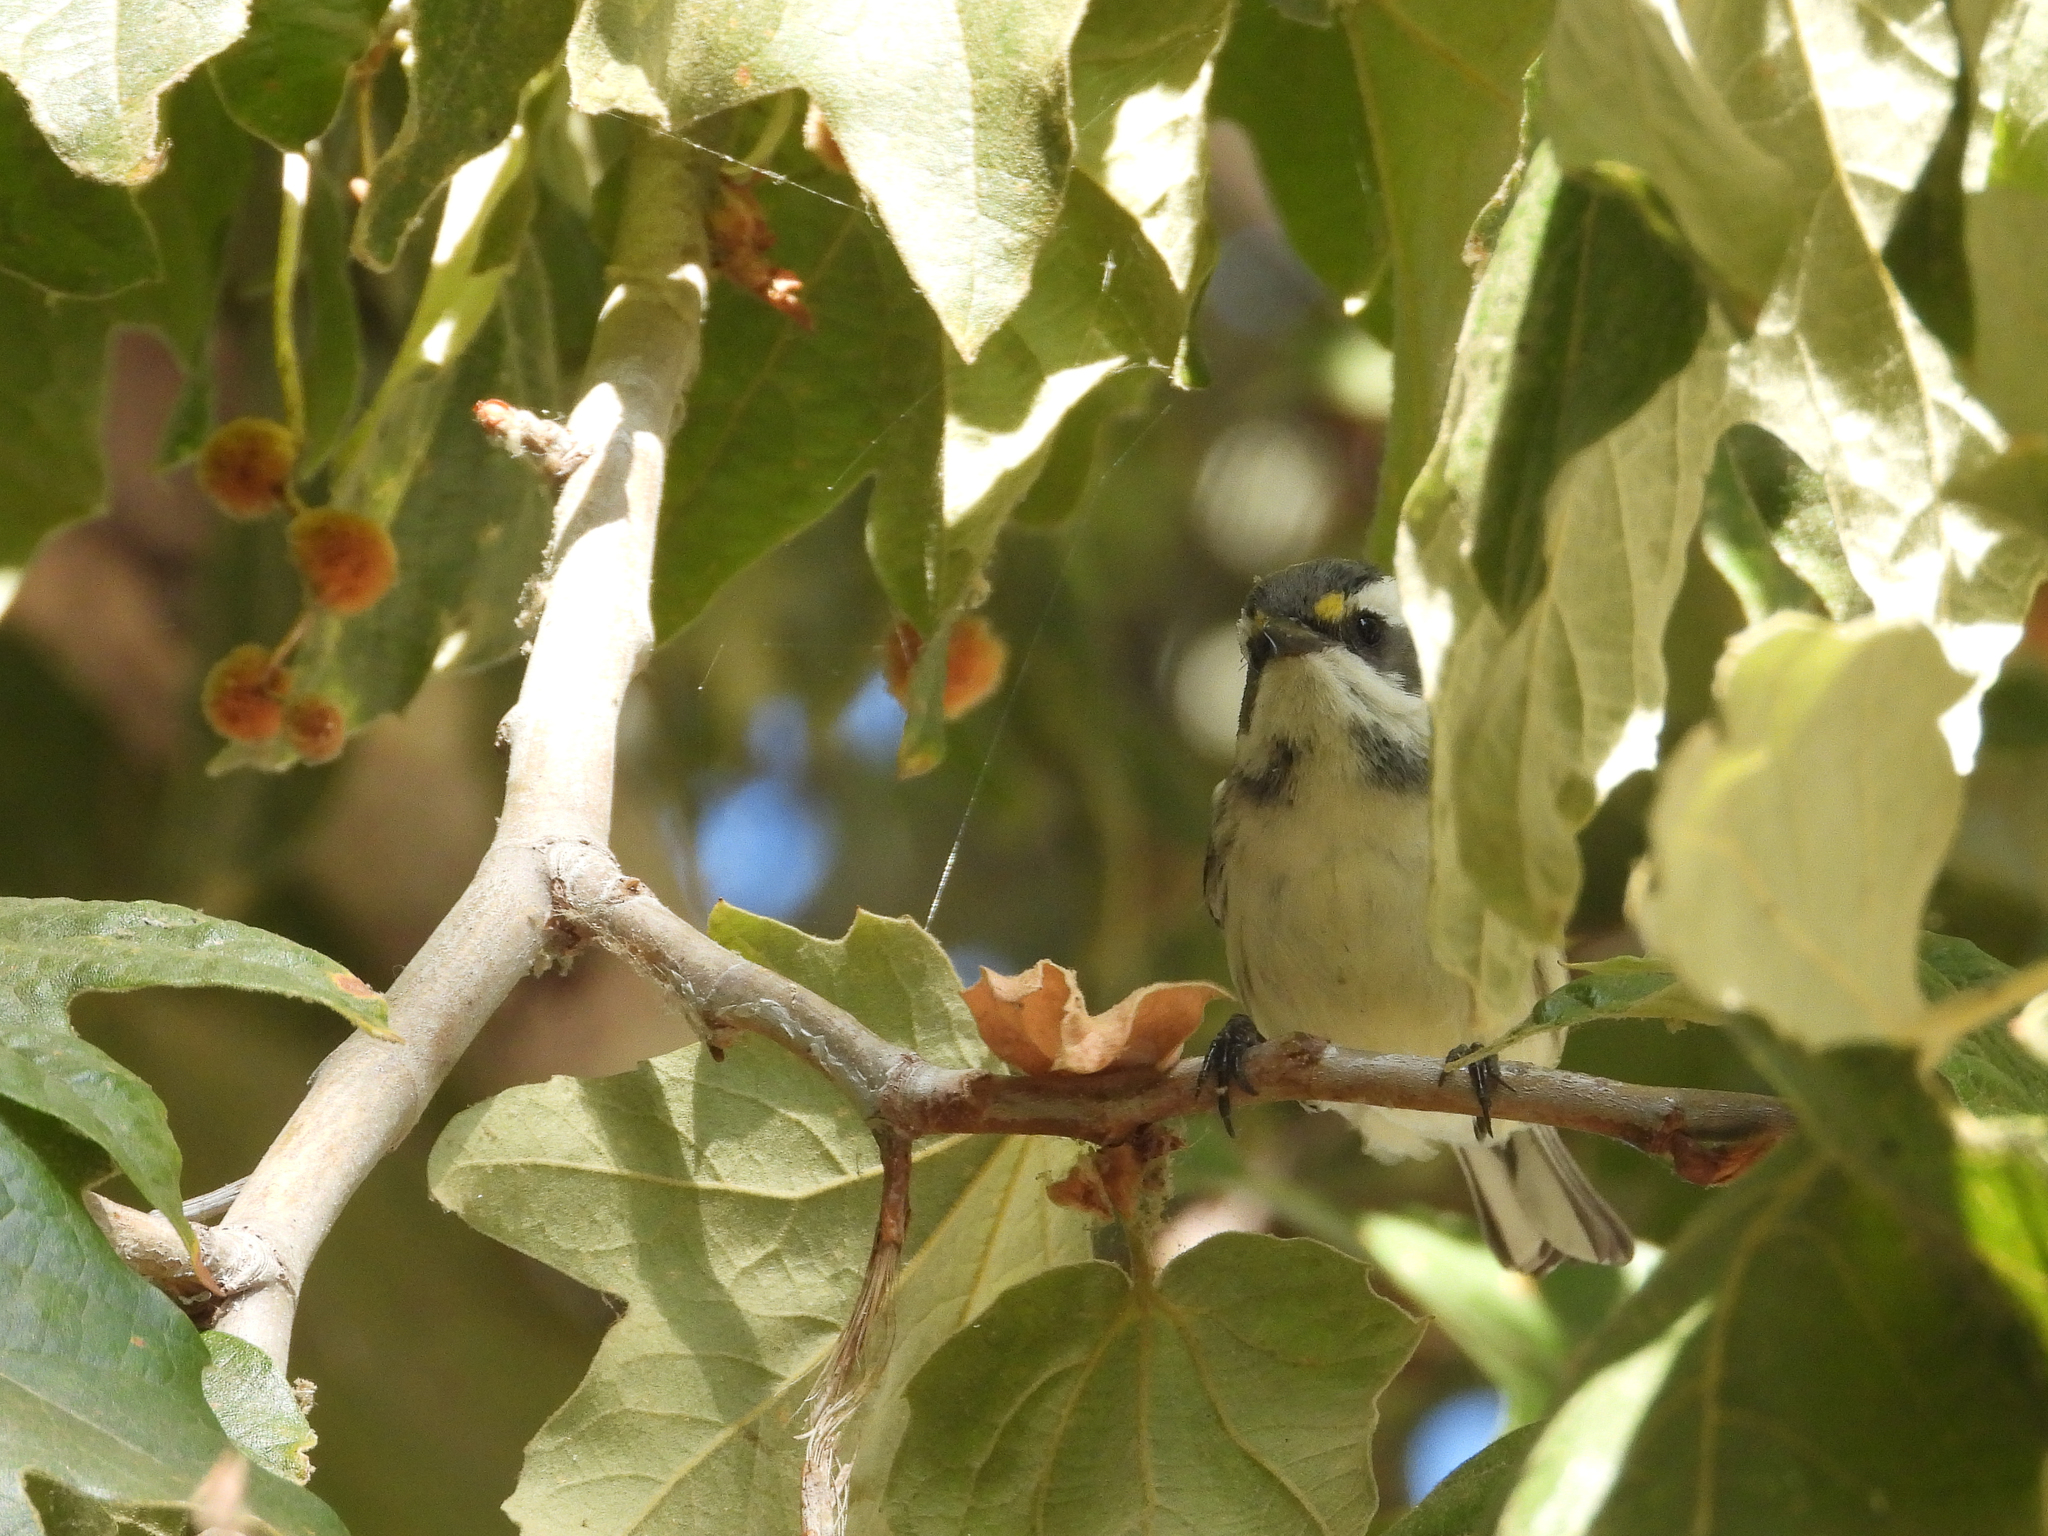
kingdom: Animalia
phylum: Chordata
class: Aves
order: Passeriformes
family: Parulidae
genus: Setophaga
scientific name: Setophaga nigrescens
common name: Black-throated gray warbler
